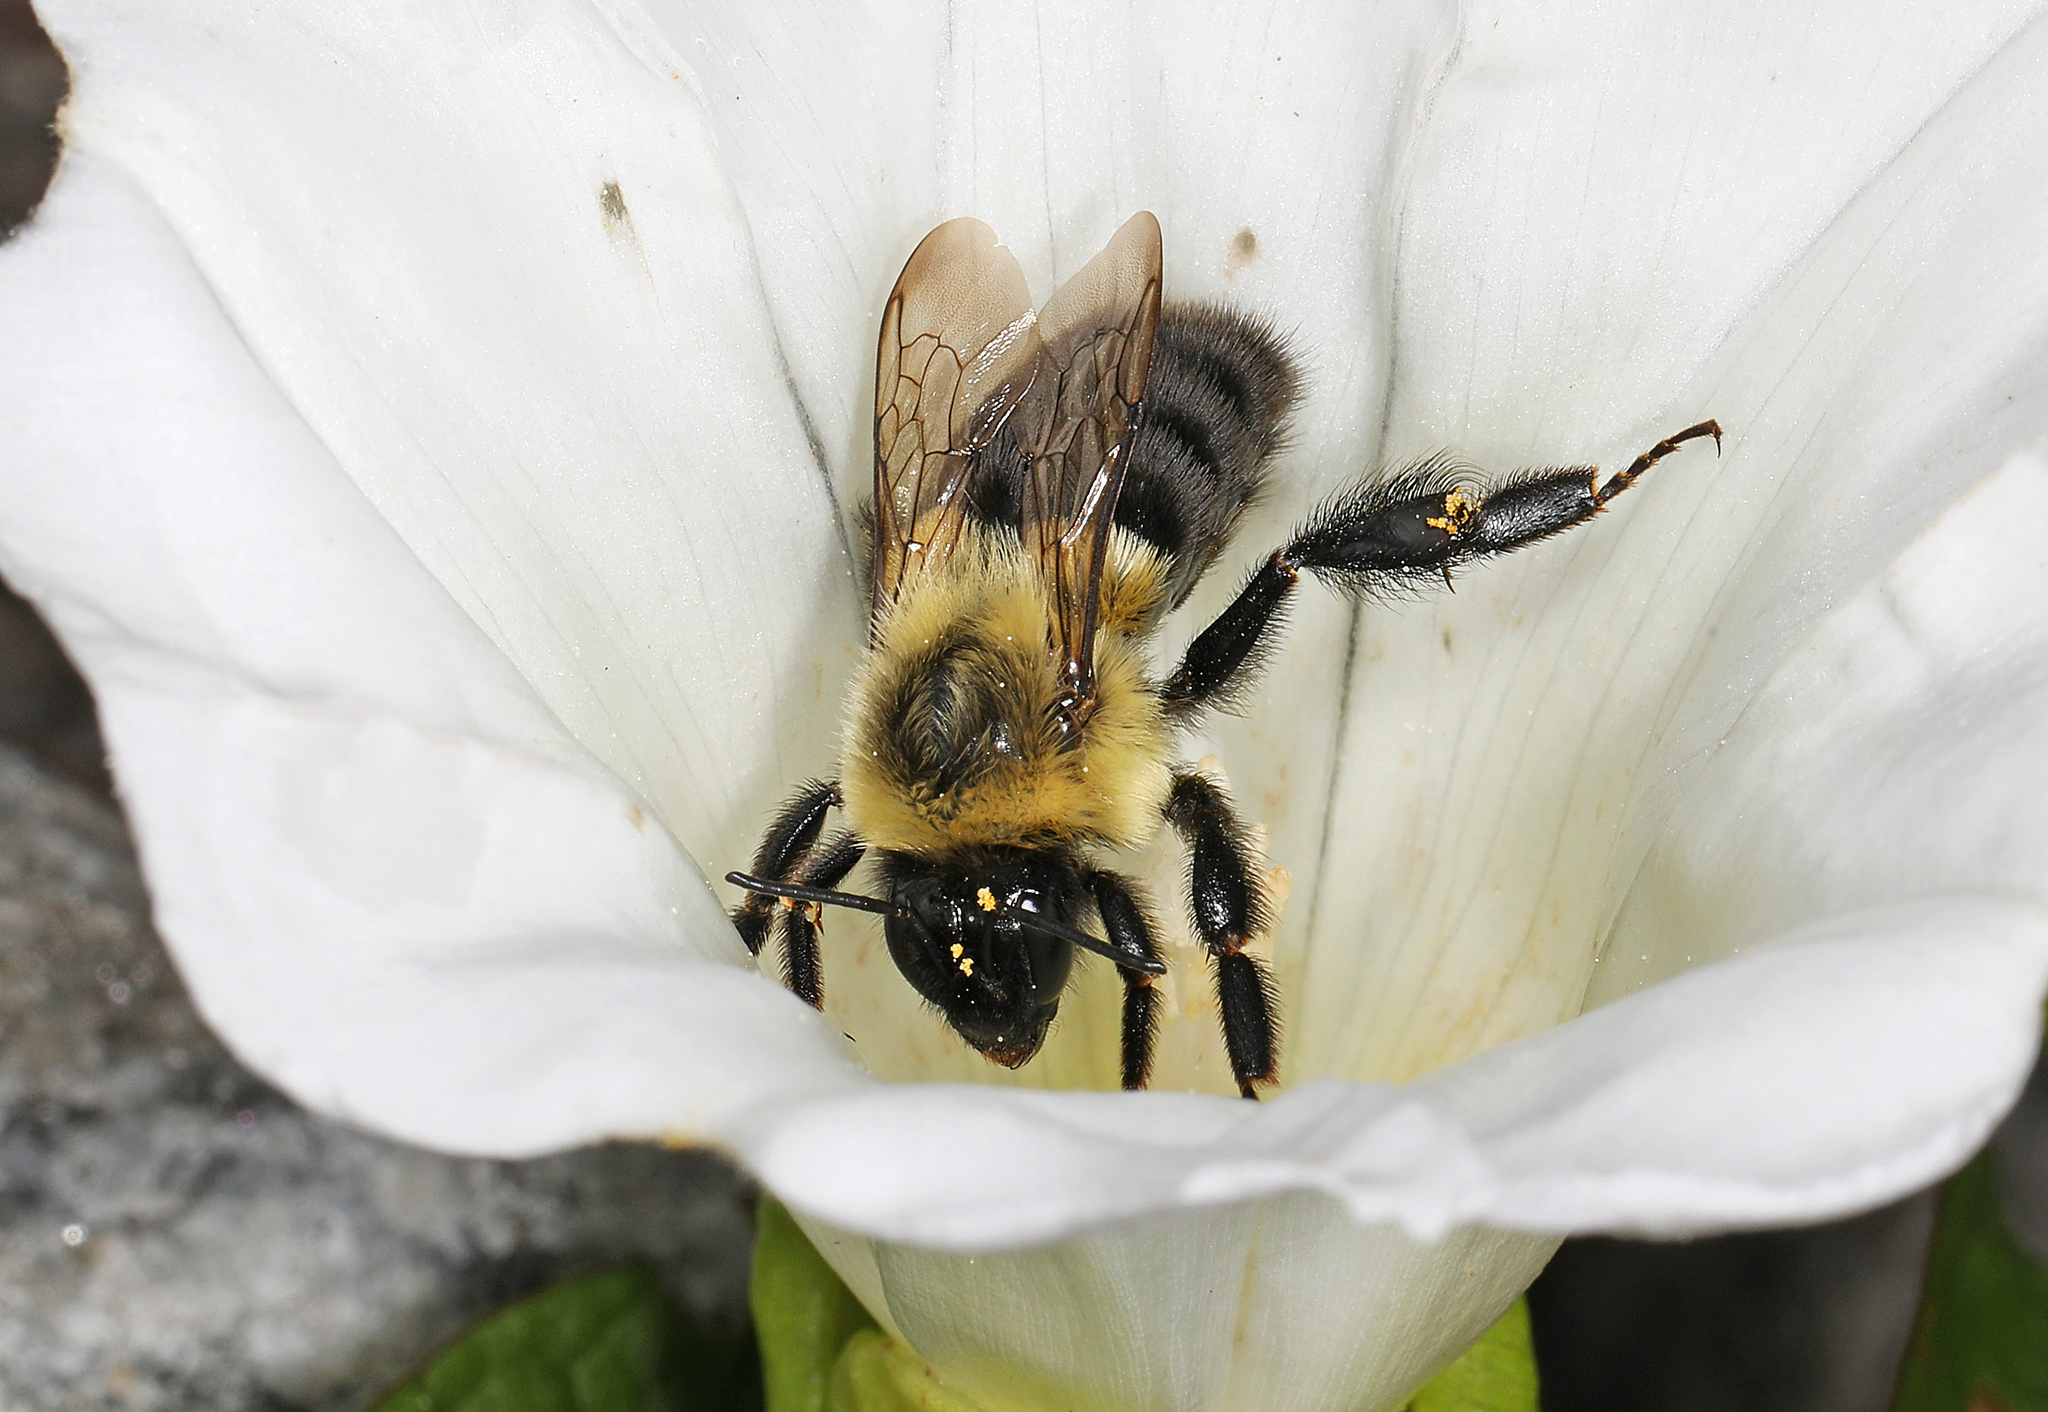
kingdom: Animalia
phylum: Arthropoda
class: Insecta
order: Hymenoptera
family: Apidae
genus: Bombus
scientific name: Bombus impatiens
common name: Common eastern bumble bee
